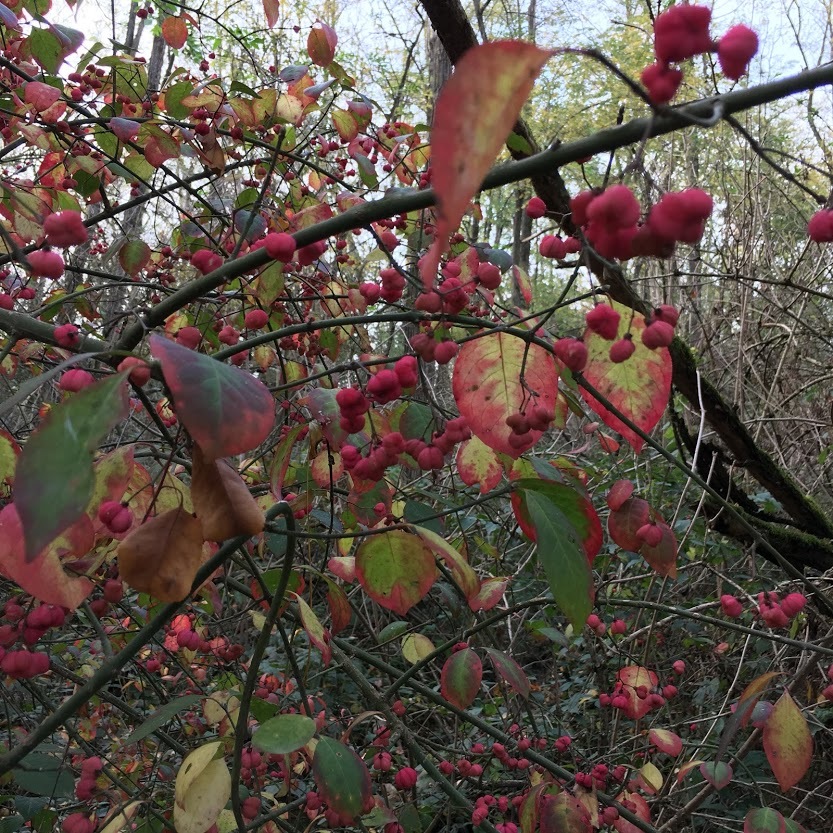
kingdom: Plantae
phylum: Tracheophyta
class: Magnoliopsida
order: Celastrales
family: Celastraceae
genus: Euonymus
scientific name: Euonymus europaeus
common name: Spindle
